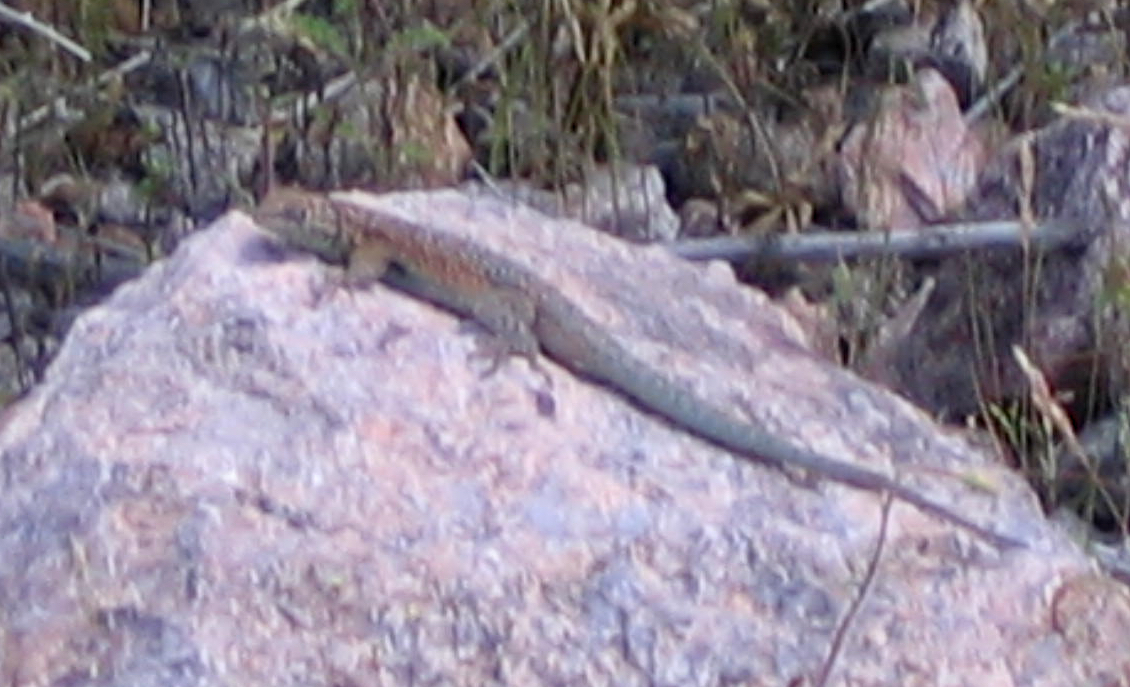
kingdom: Animalia
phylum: Chordata
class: Squamata
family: Phrynosomatidae
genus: Uta
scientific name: Uta stansburiana
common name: Side-blotched lizard
